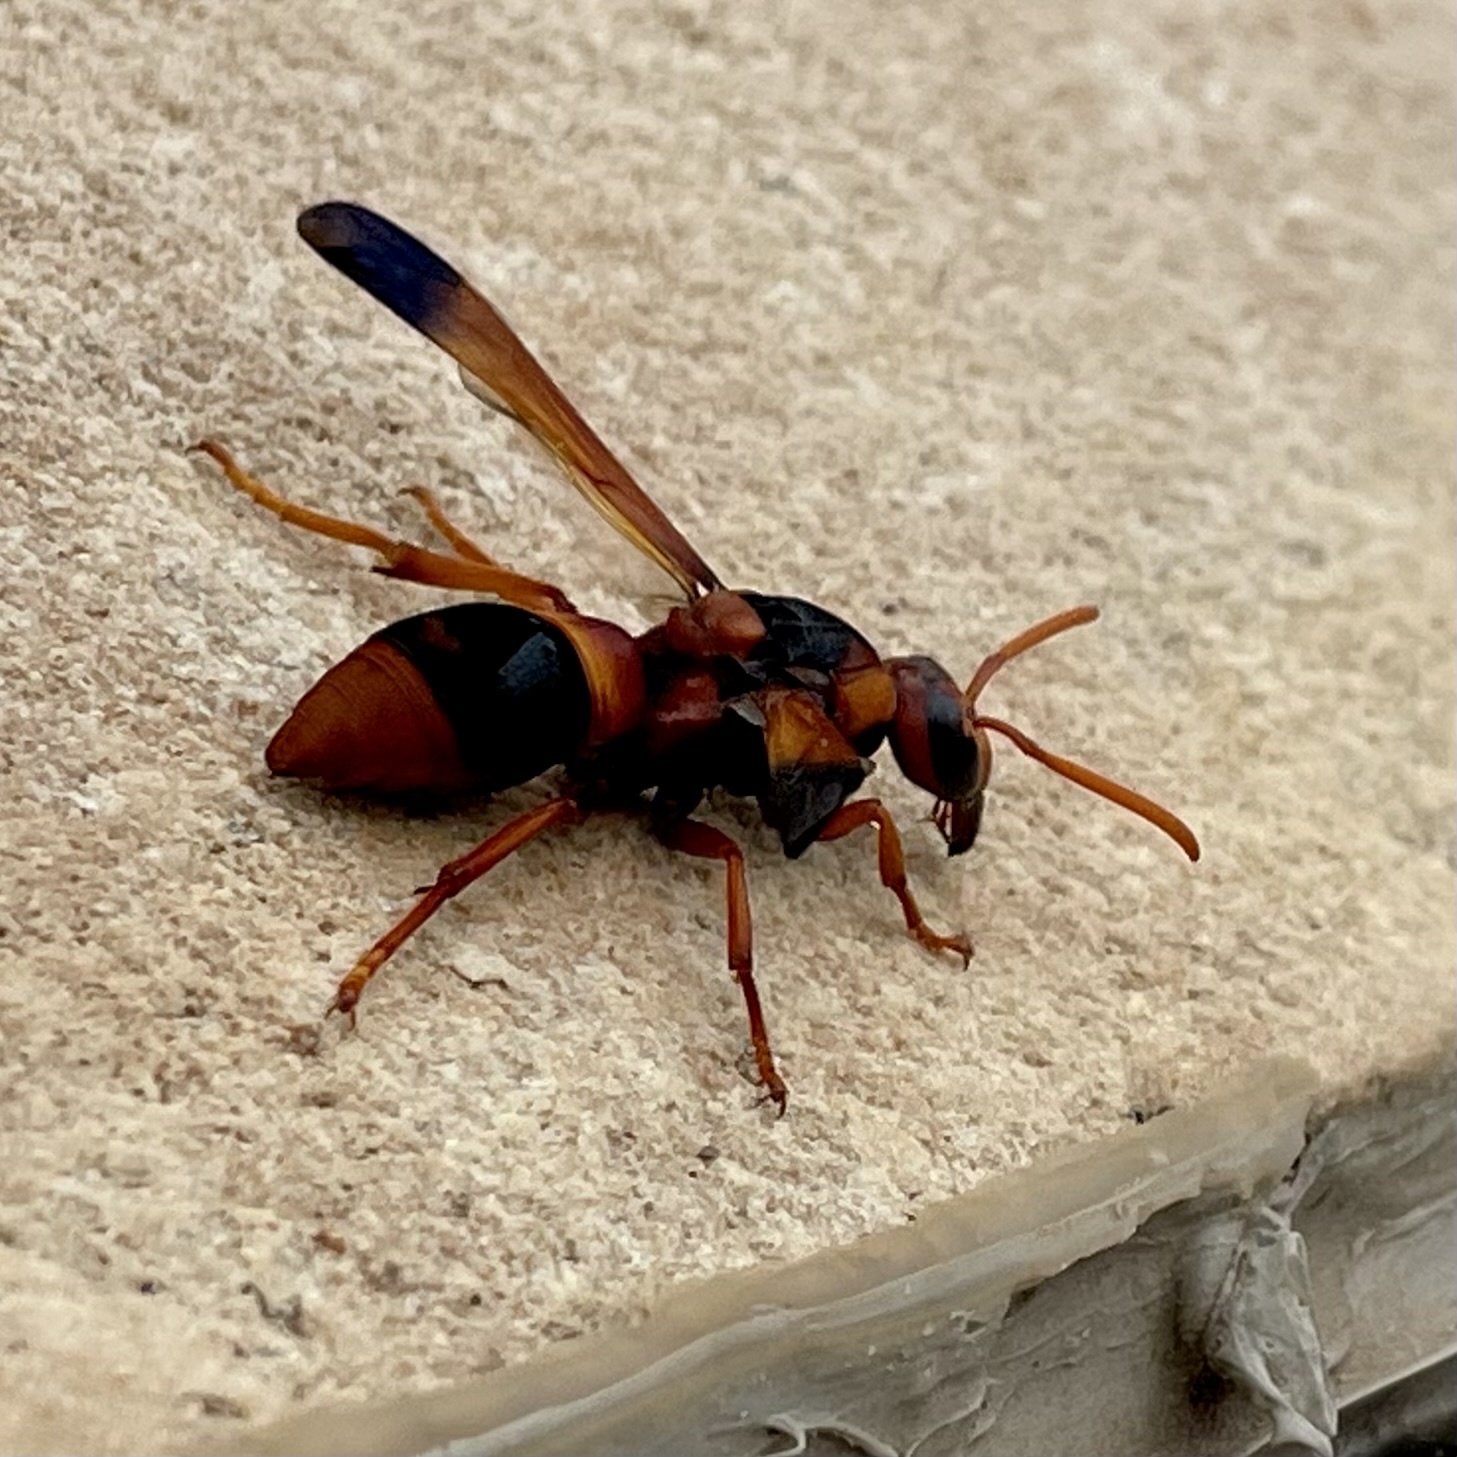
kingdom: Animalia
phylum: Arthropoda
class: Insecta
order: Hymenoptera
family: Eumenidae
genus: Pseudabispa
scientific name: Pseudabispa ephippioides
